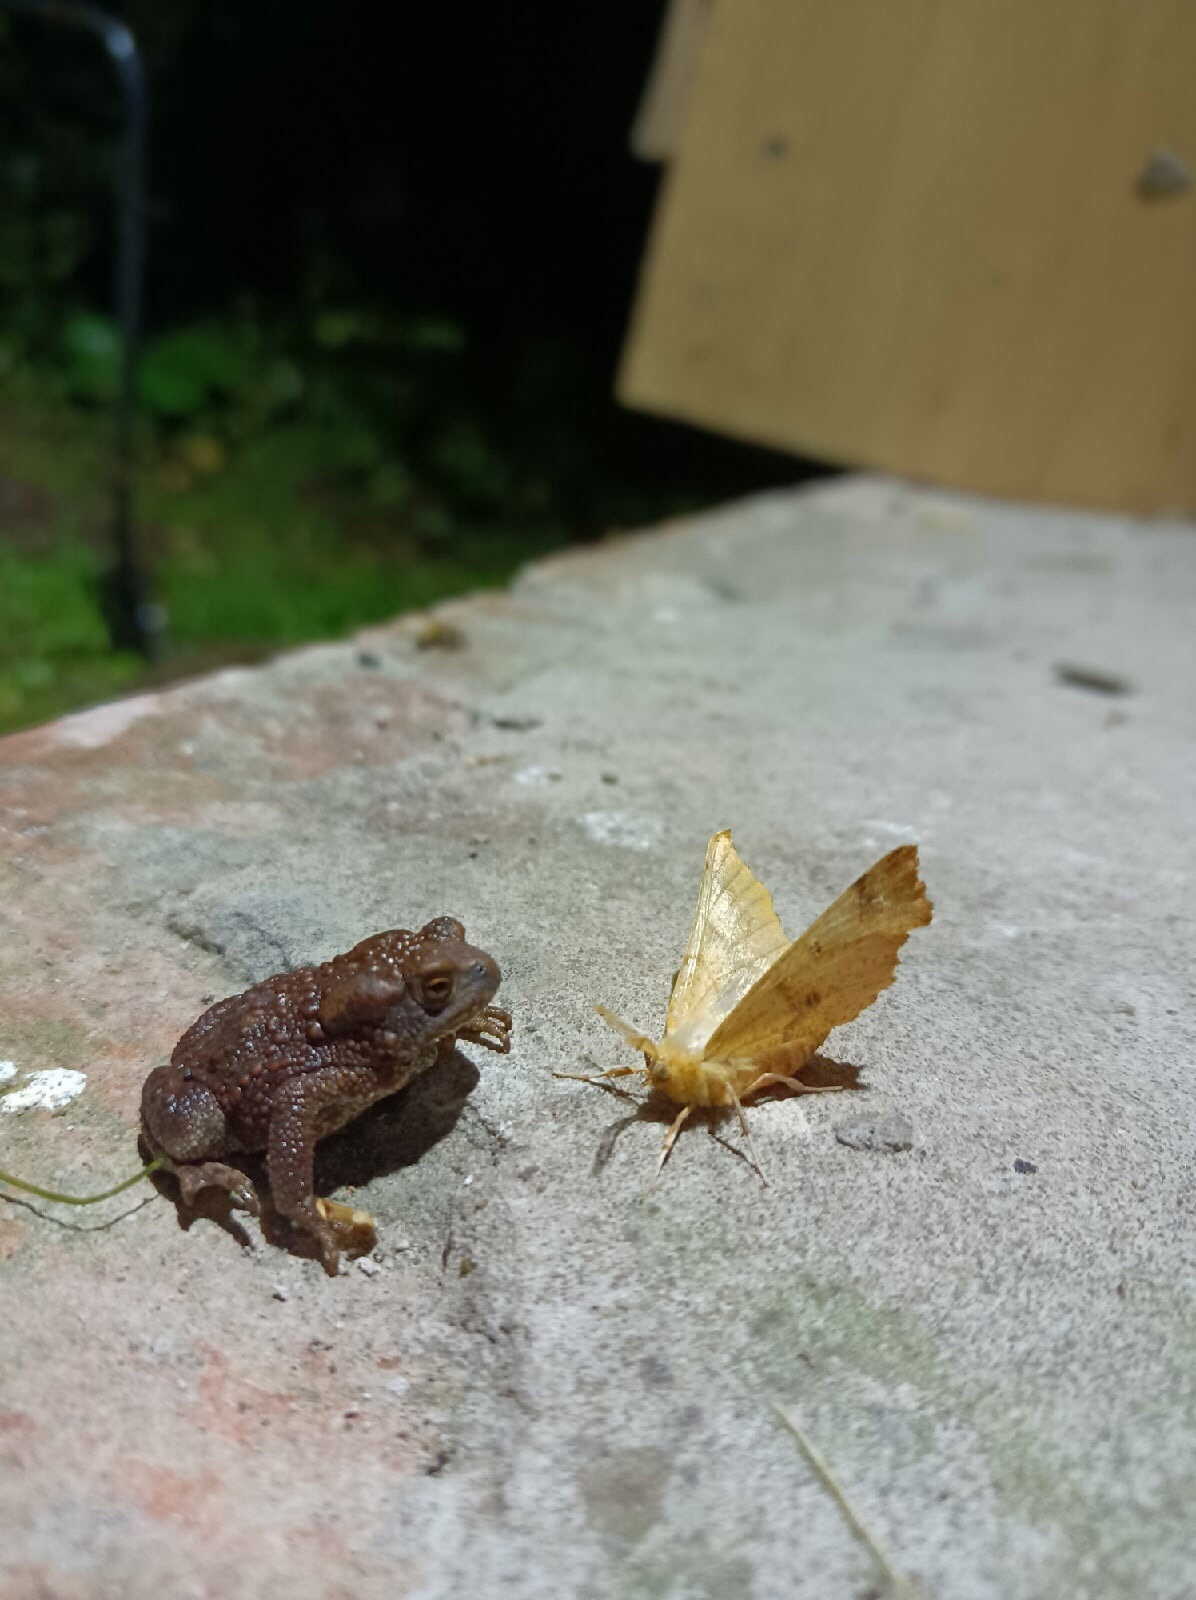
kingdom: Animalia
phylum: Chordata
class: Amphibia
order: Anura
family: Bufonidae
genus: Bufo
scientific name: Bufo bufo
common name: Common toad
